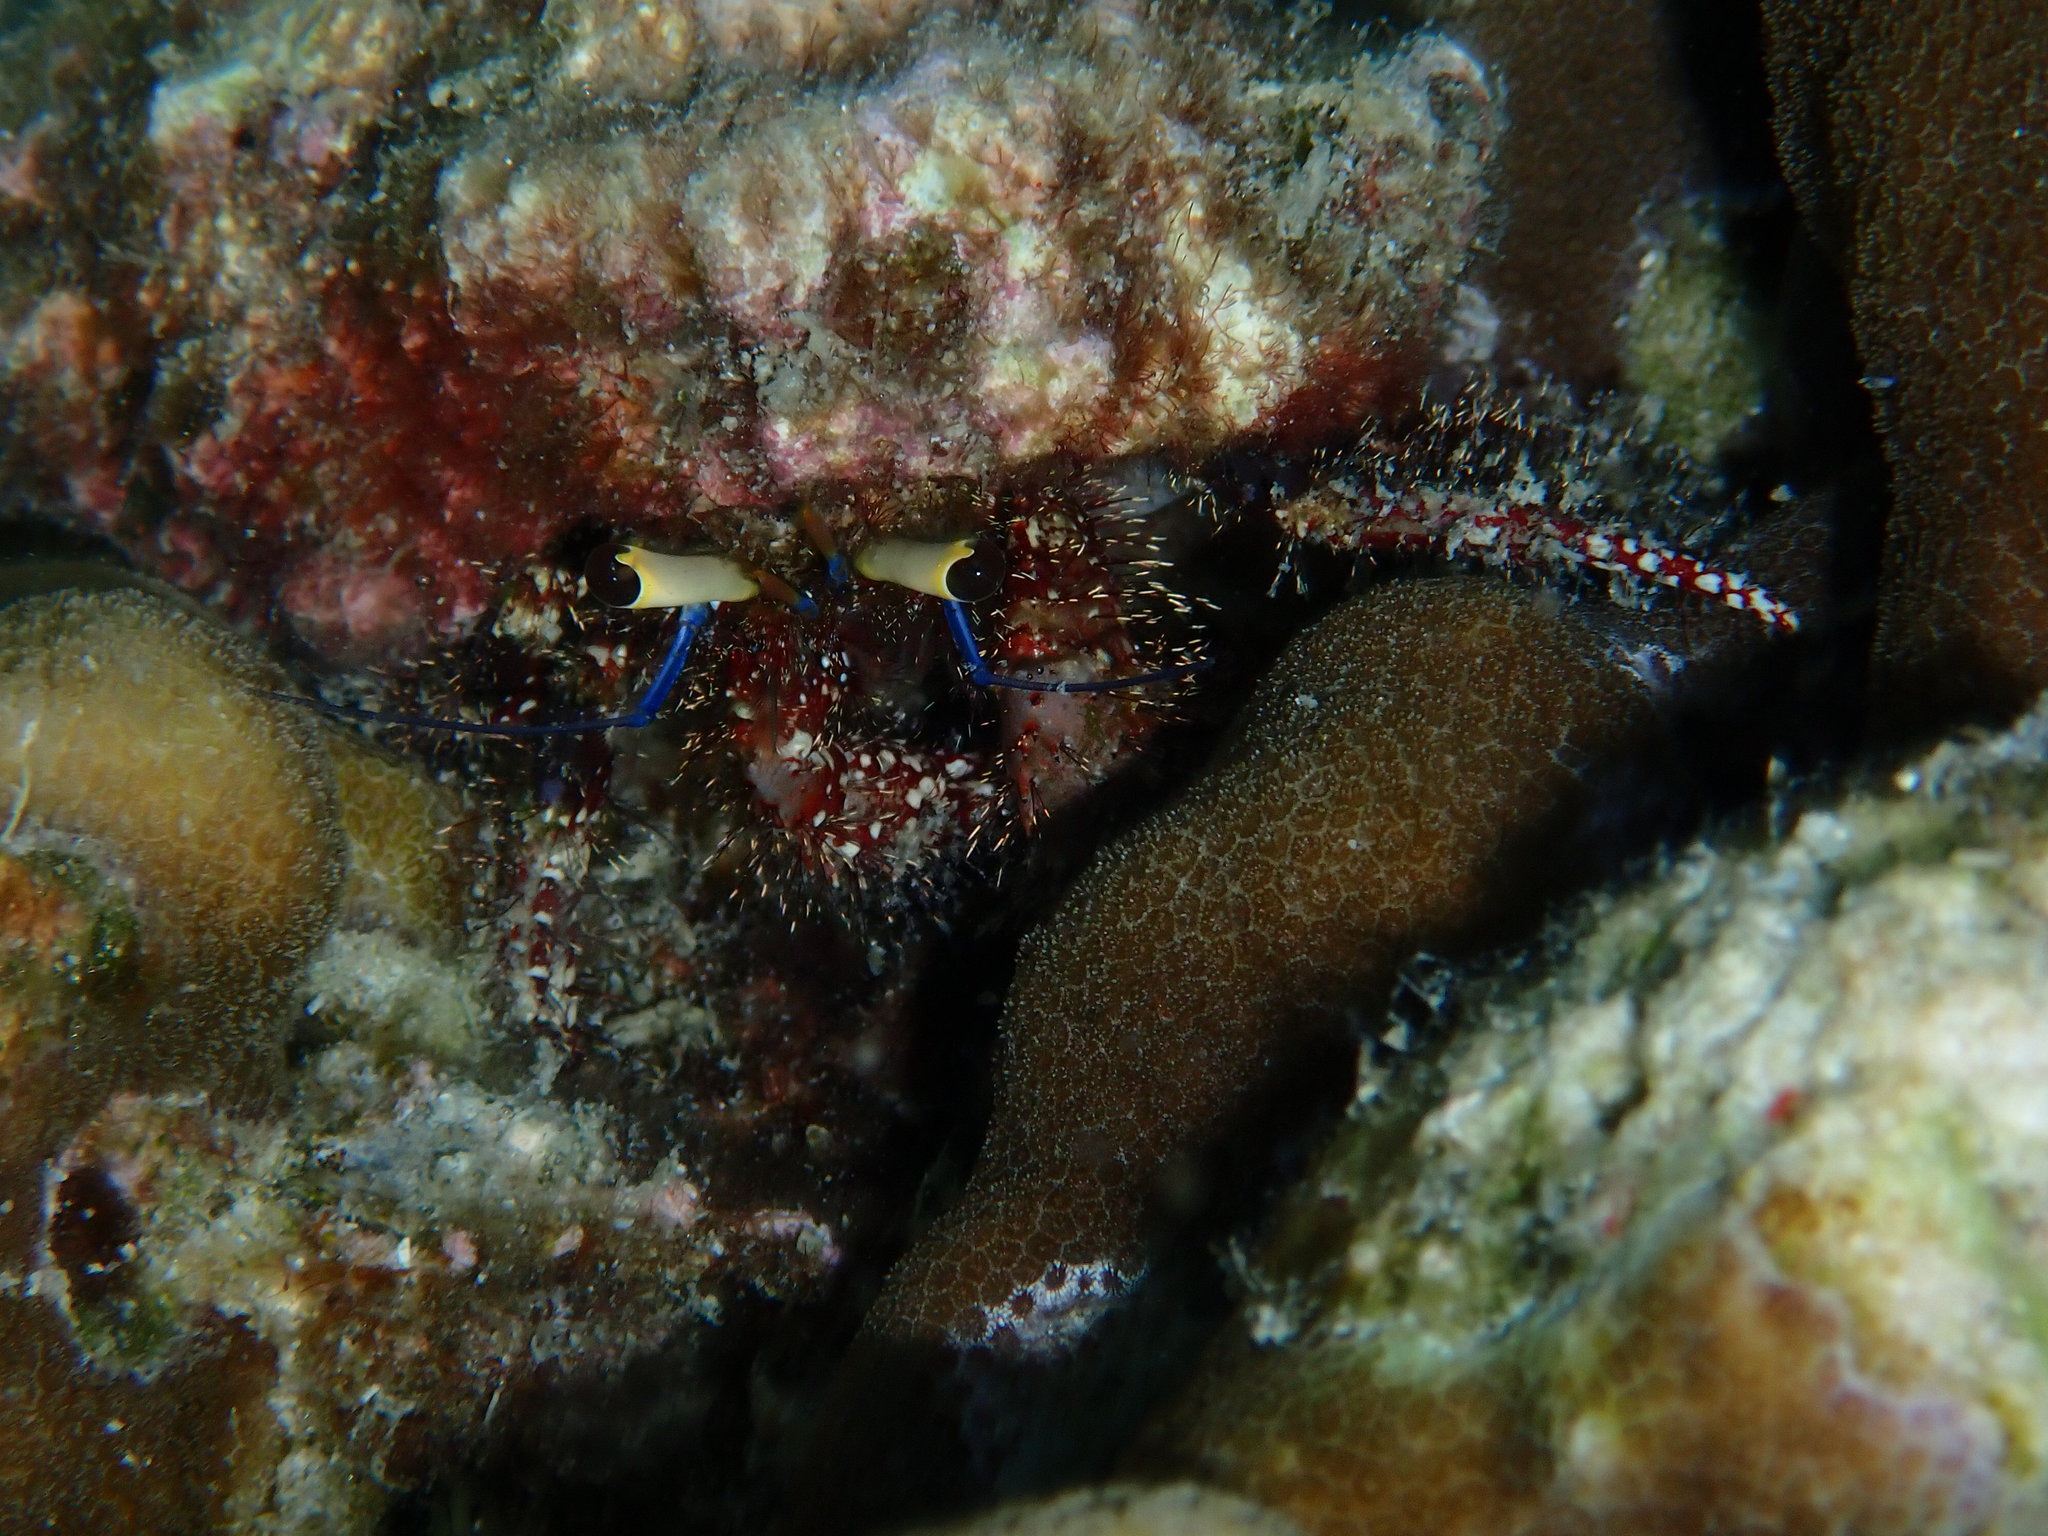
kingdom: Animalia
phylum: Arthropoda
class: Malacostraca
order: Decapoda
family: Diogenidae
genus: Dardanus
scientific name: Dardanus lagopodes
